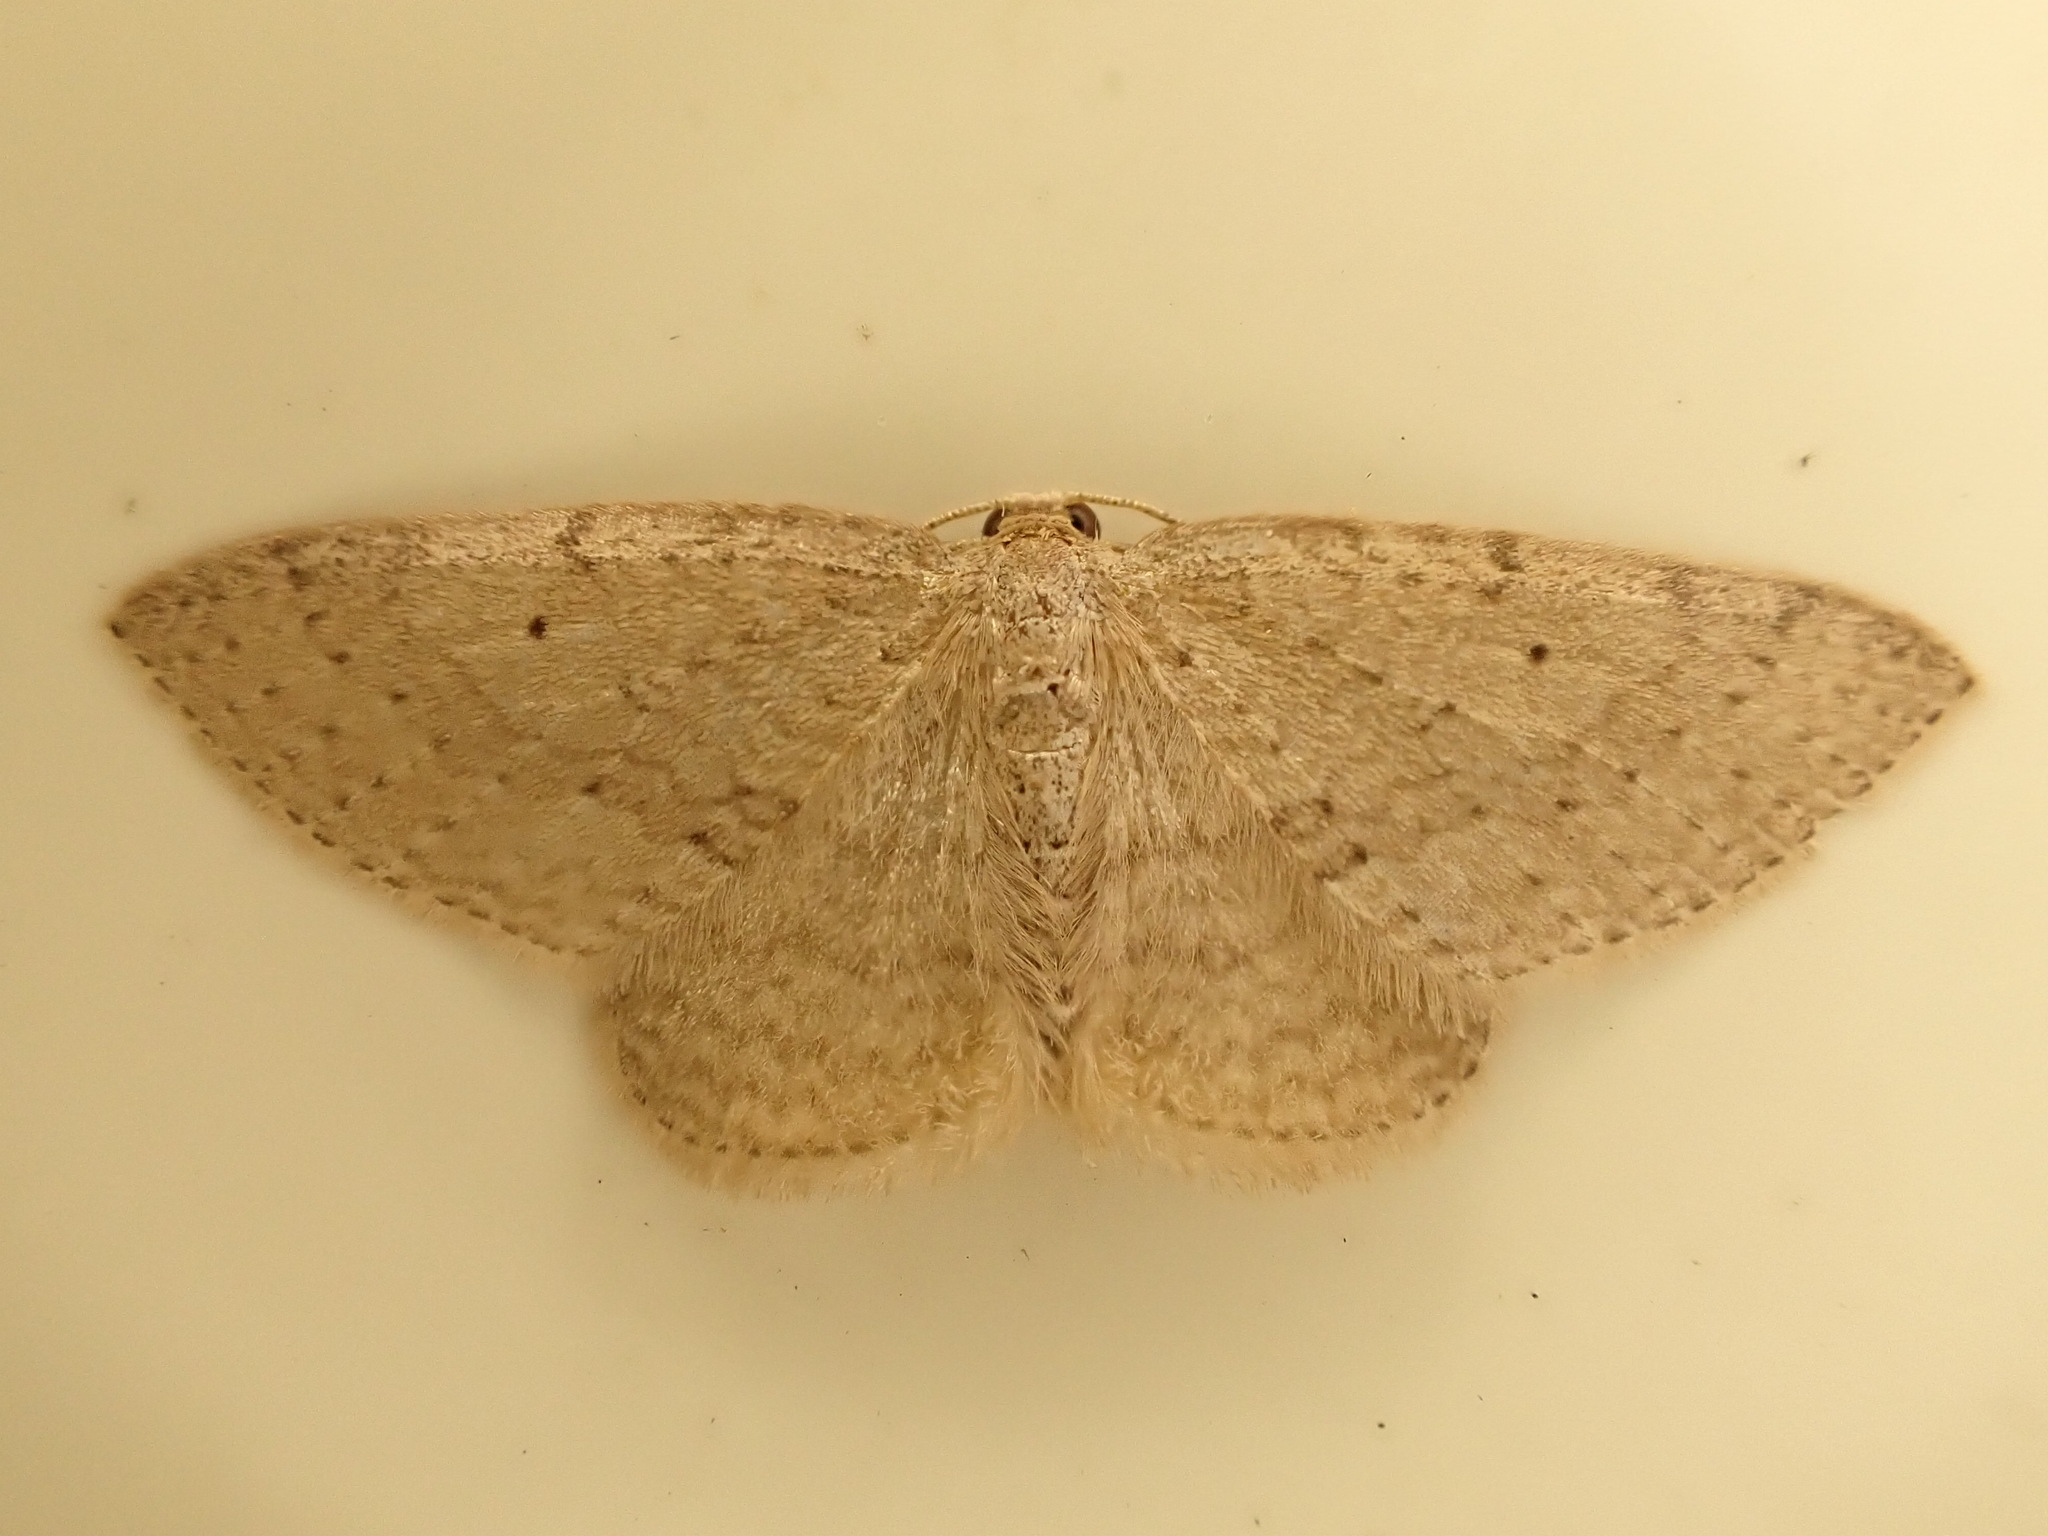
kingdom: Animalia
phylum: Arthropoda
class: Insecta
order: Lepidoptera
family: Geometridae
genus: Poecilasthena
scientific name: Poecilasthena schistaria
